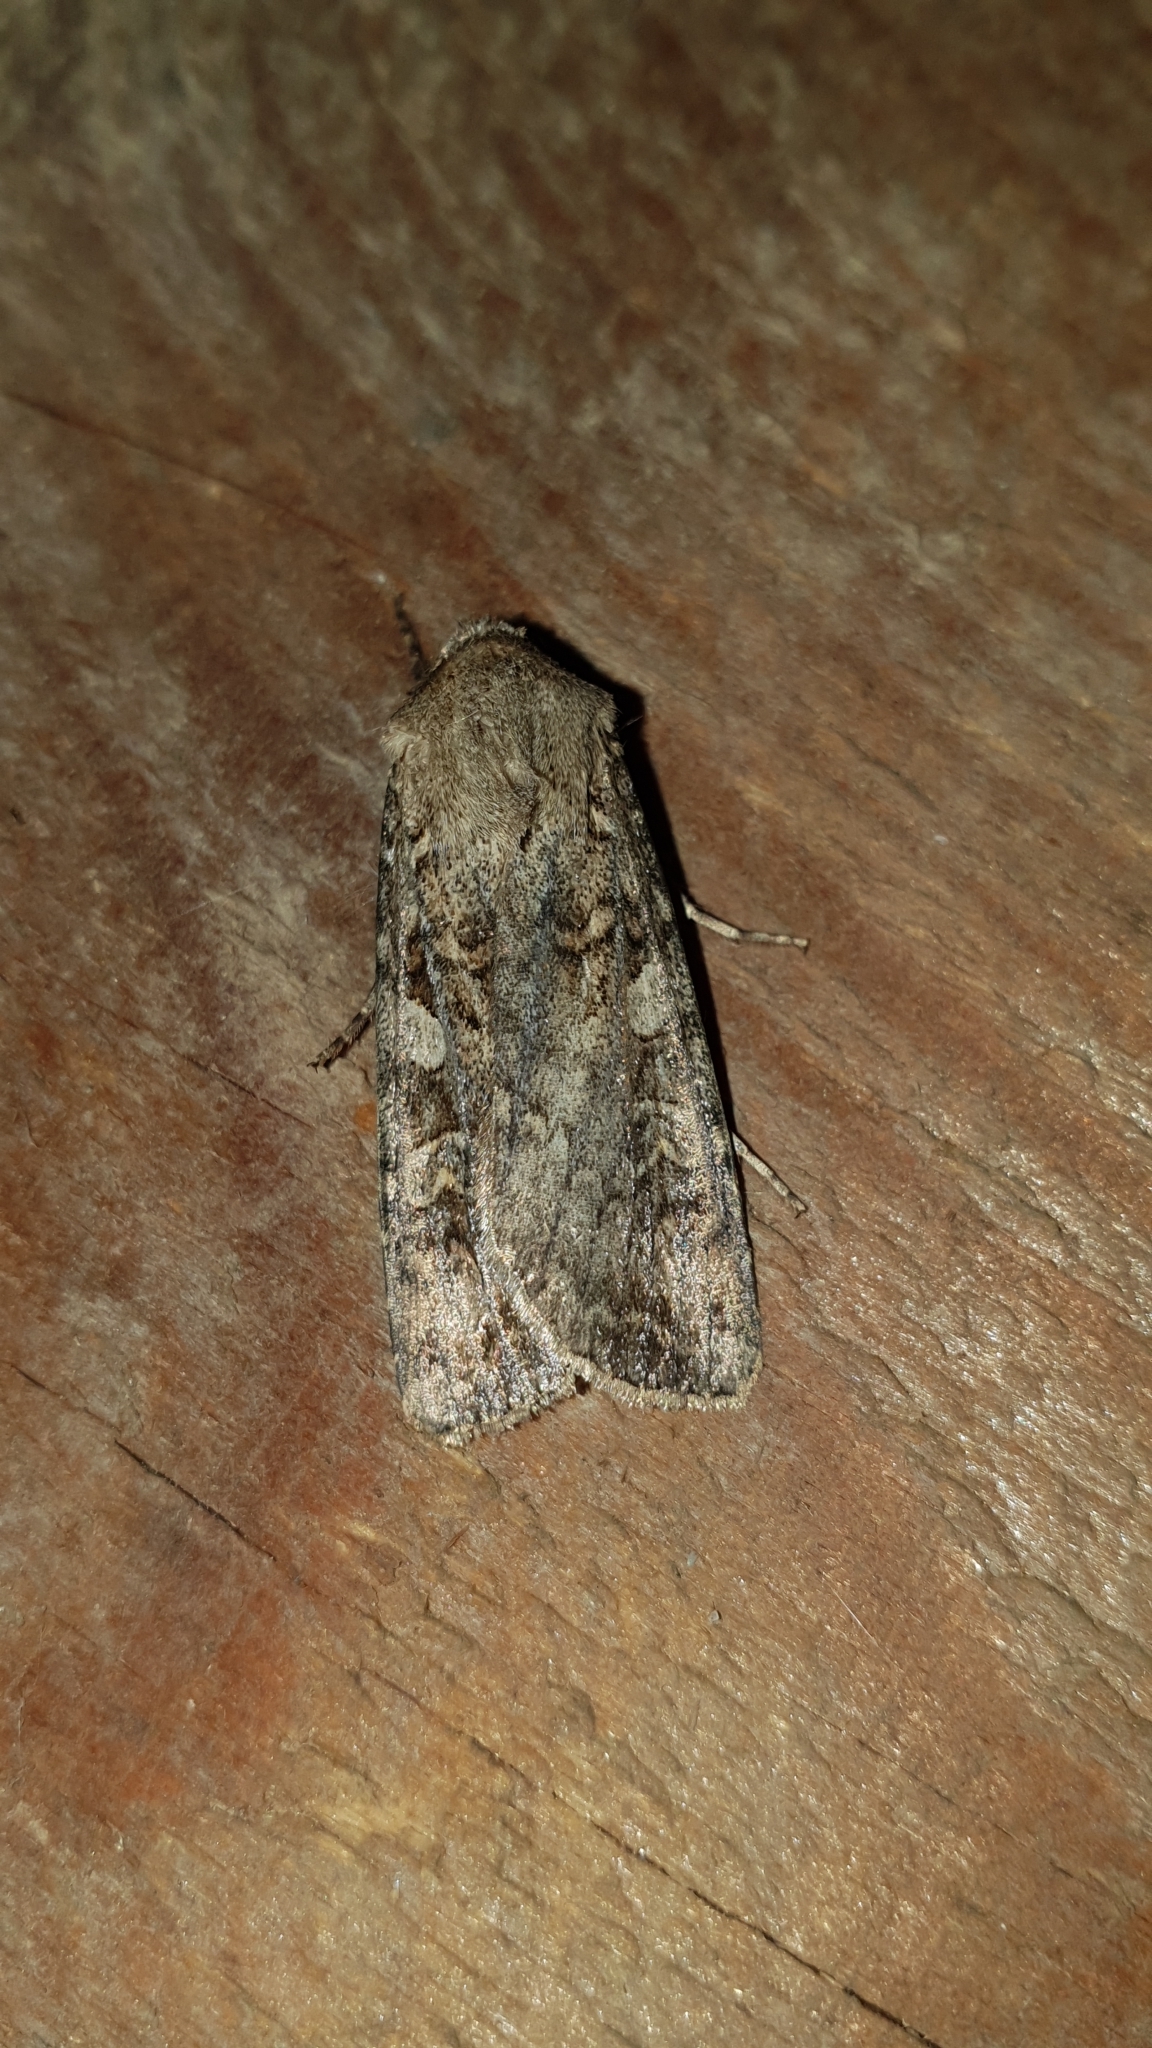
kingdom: Animalia
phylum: Arthropoda
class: Insecta
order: Lepidoptera
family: Noctuidae
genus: Euxoa
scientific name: Euxoa conspicua
